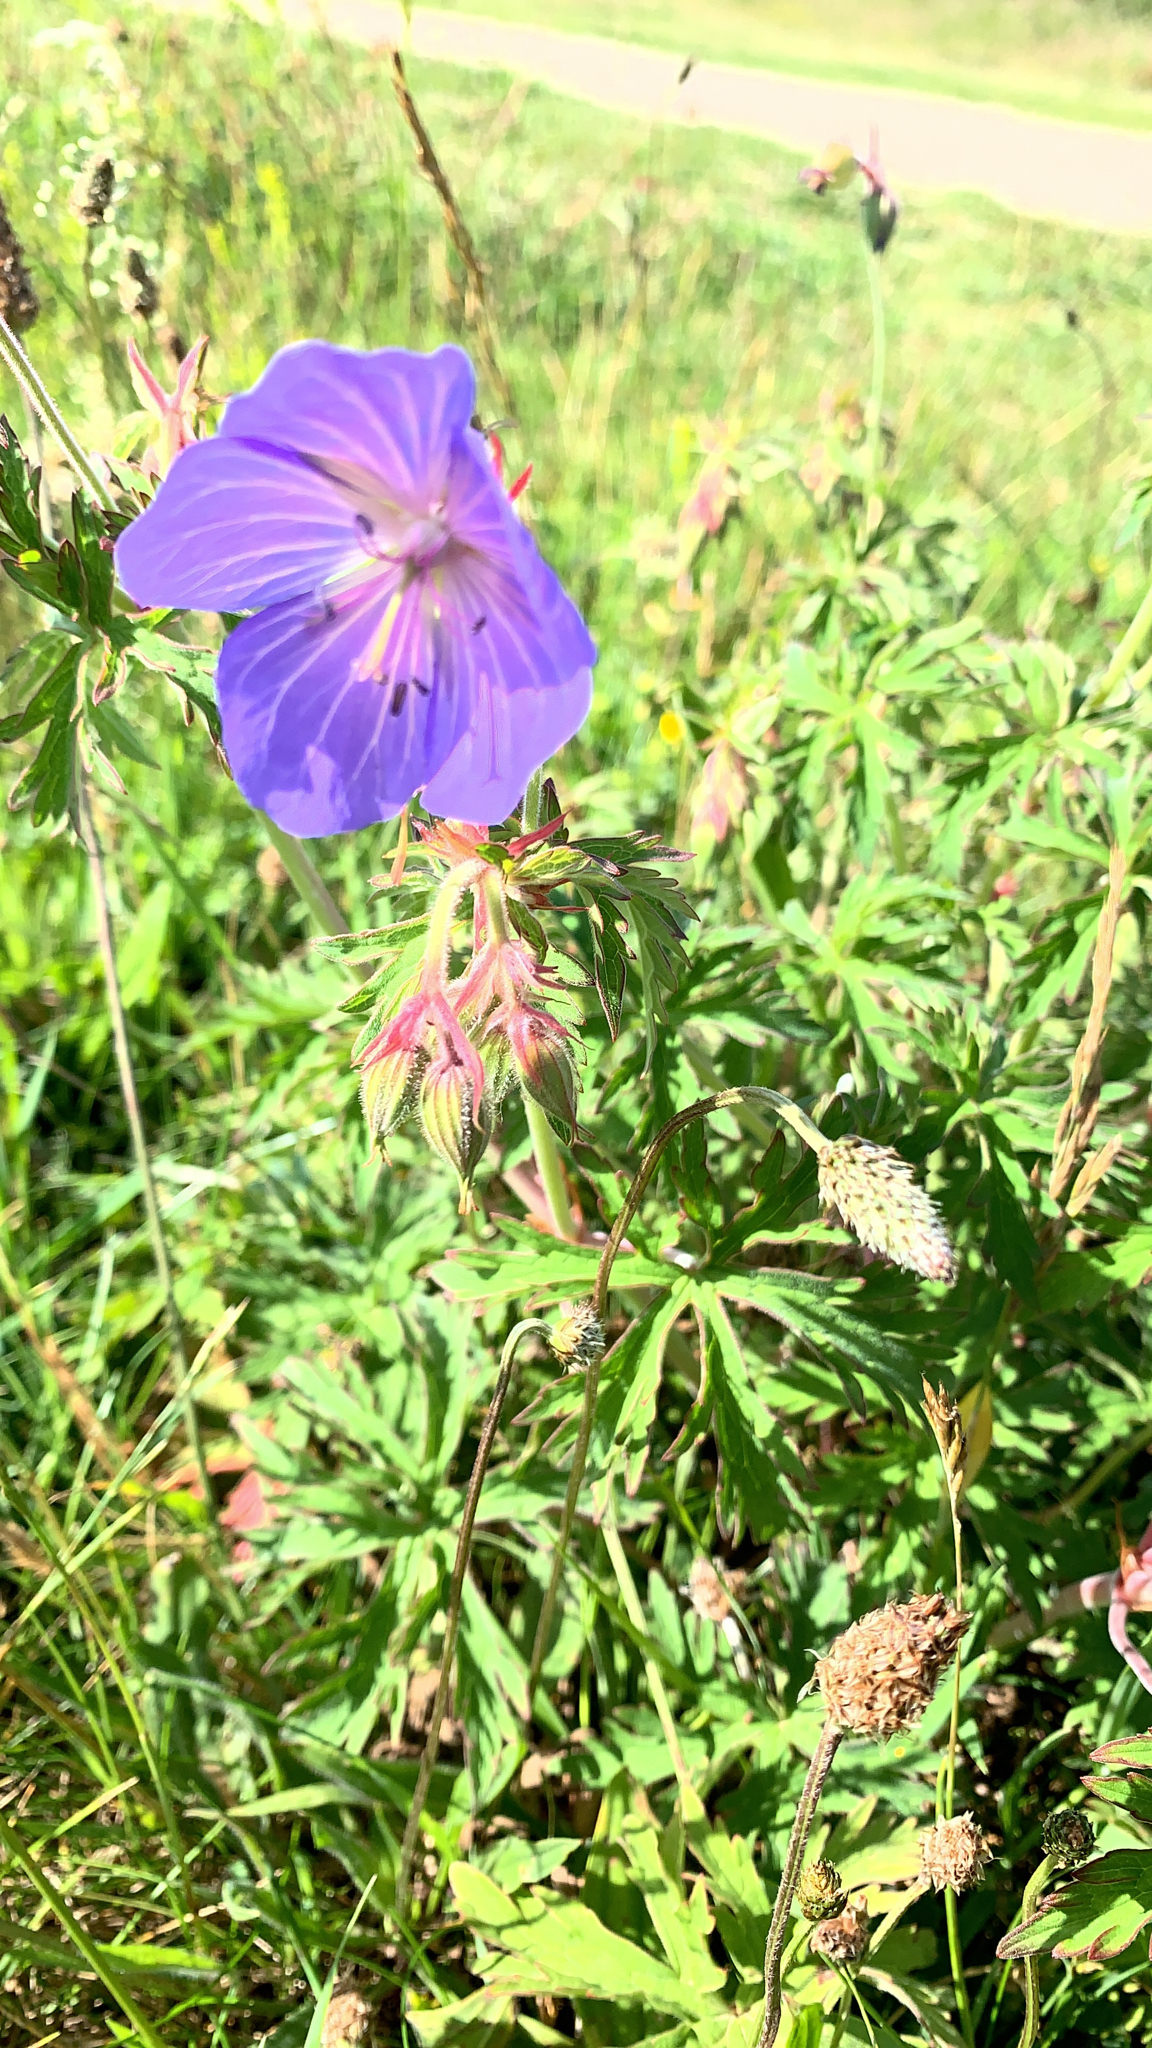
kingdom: Plantae
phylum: Tracheophyta
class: Magnoliopsida
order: Geraniales
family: Geraniaceae
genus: Geranium
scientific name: Geranium pratense
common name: Meadow crane's-bill
